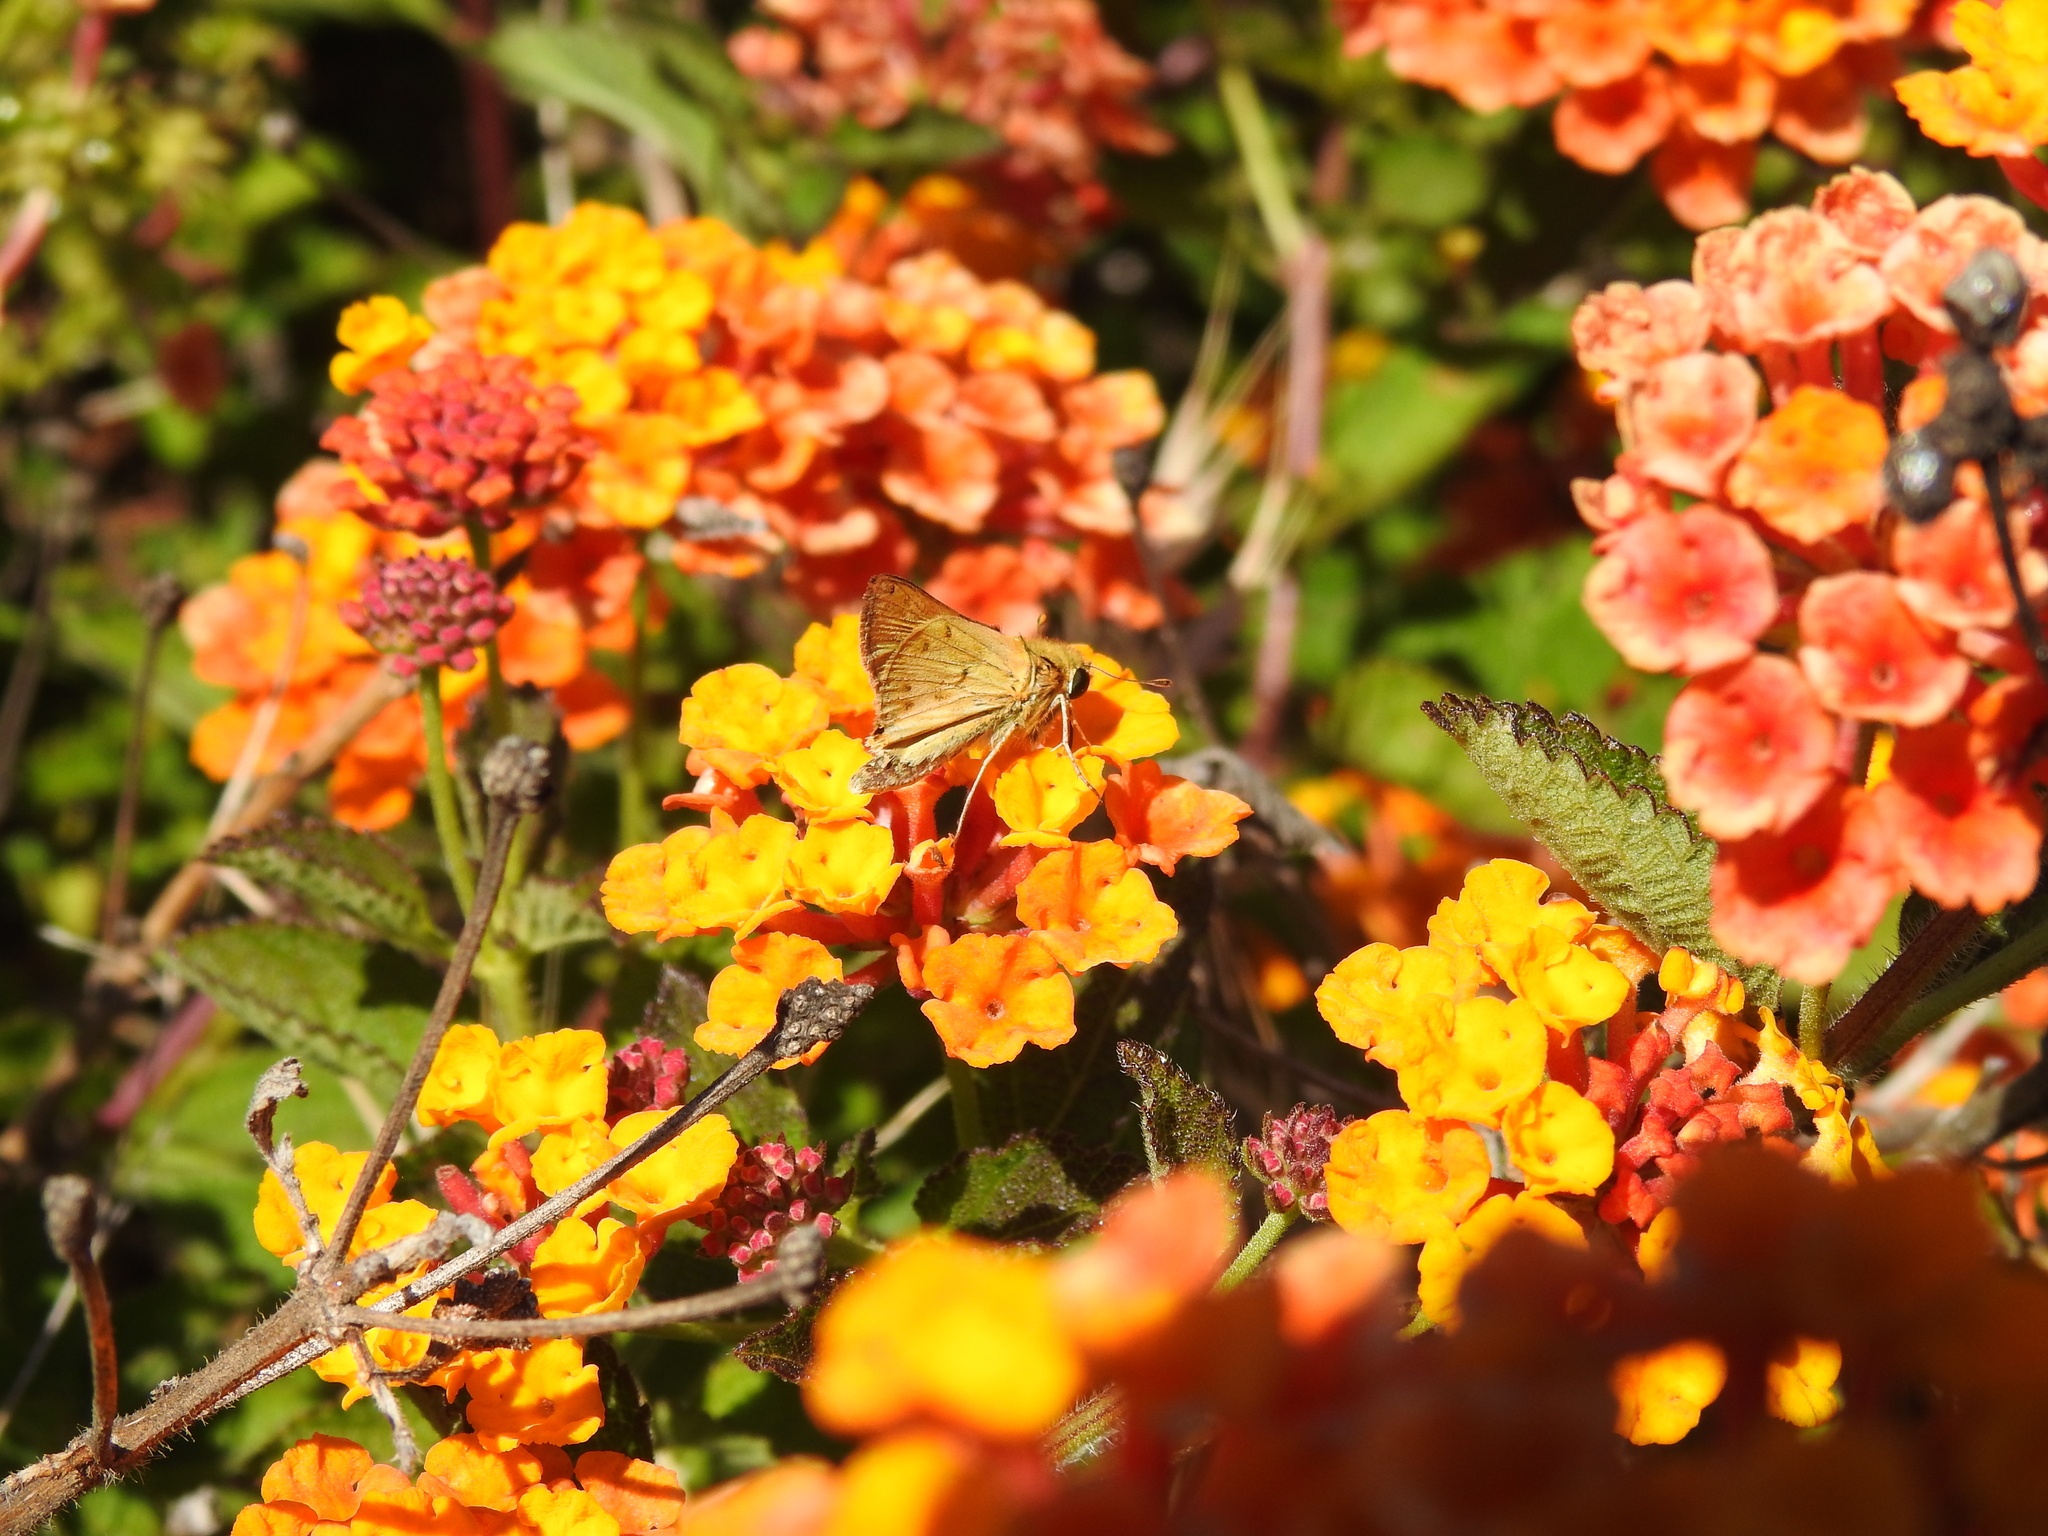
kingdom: Animalia
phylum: Arthropoda
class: Insecta
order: Lepidoptera
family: Hesperiidae
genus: Hylephila
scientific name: Hylephila phyleus
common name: Fiery skipper
